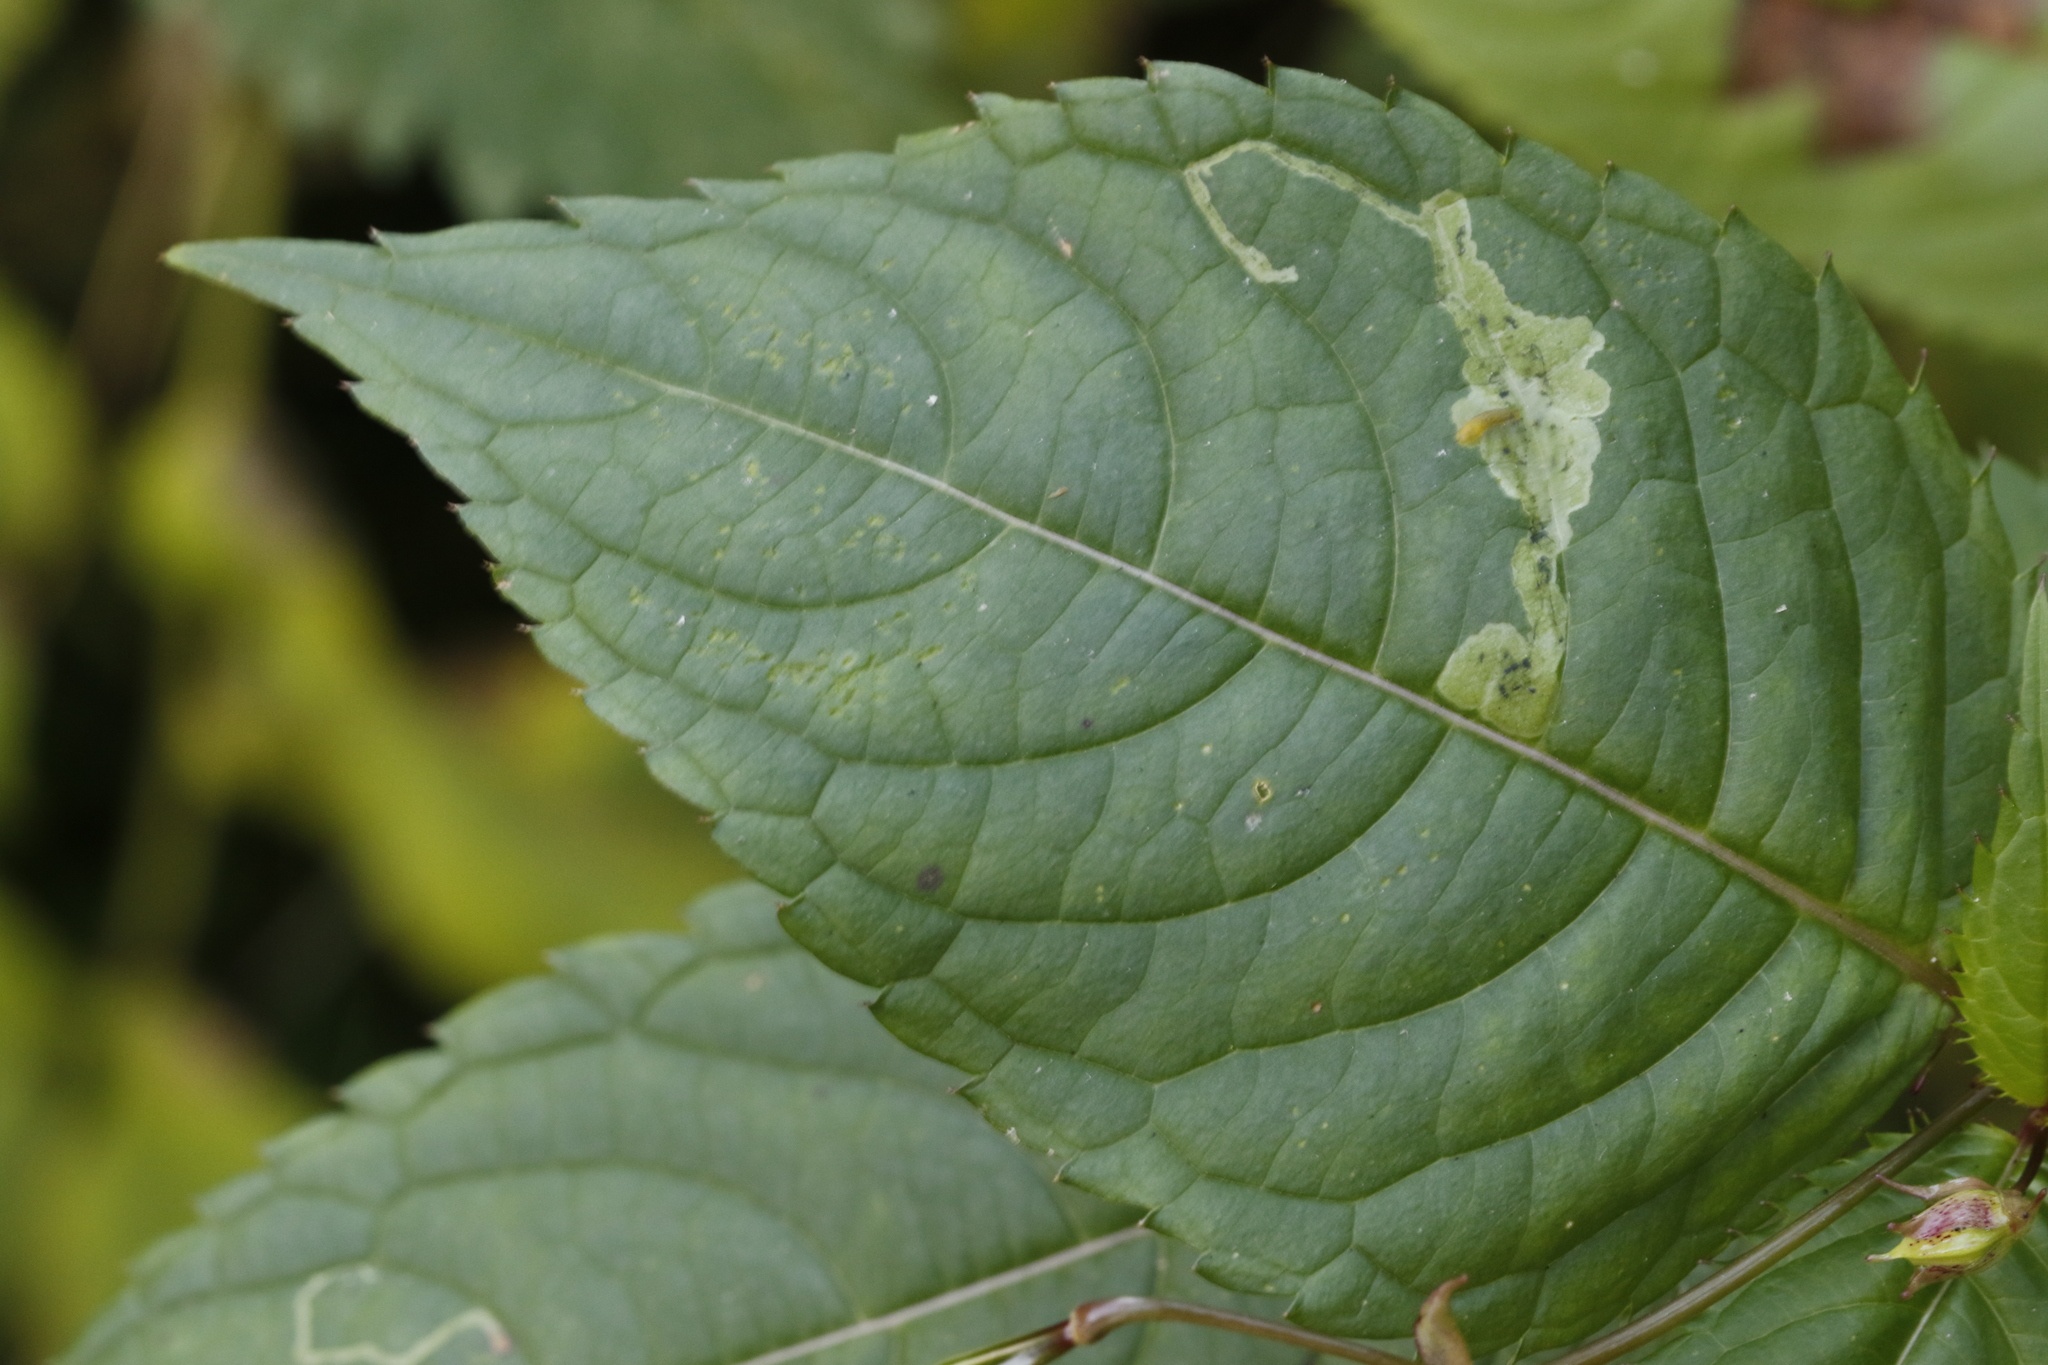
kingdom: Animalia
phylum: Arthropoda
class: Insecta
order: Diptera
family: Agromyzidae
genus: Phytoliriomyza
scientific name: Phytoliriomyza melampyga
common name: Jewelweed leaf-miner fly
